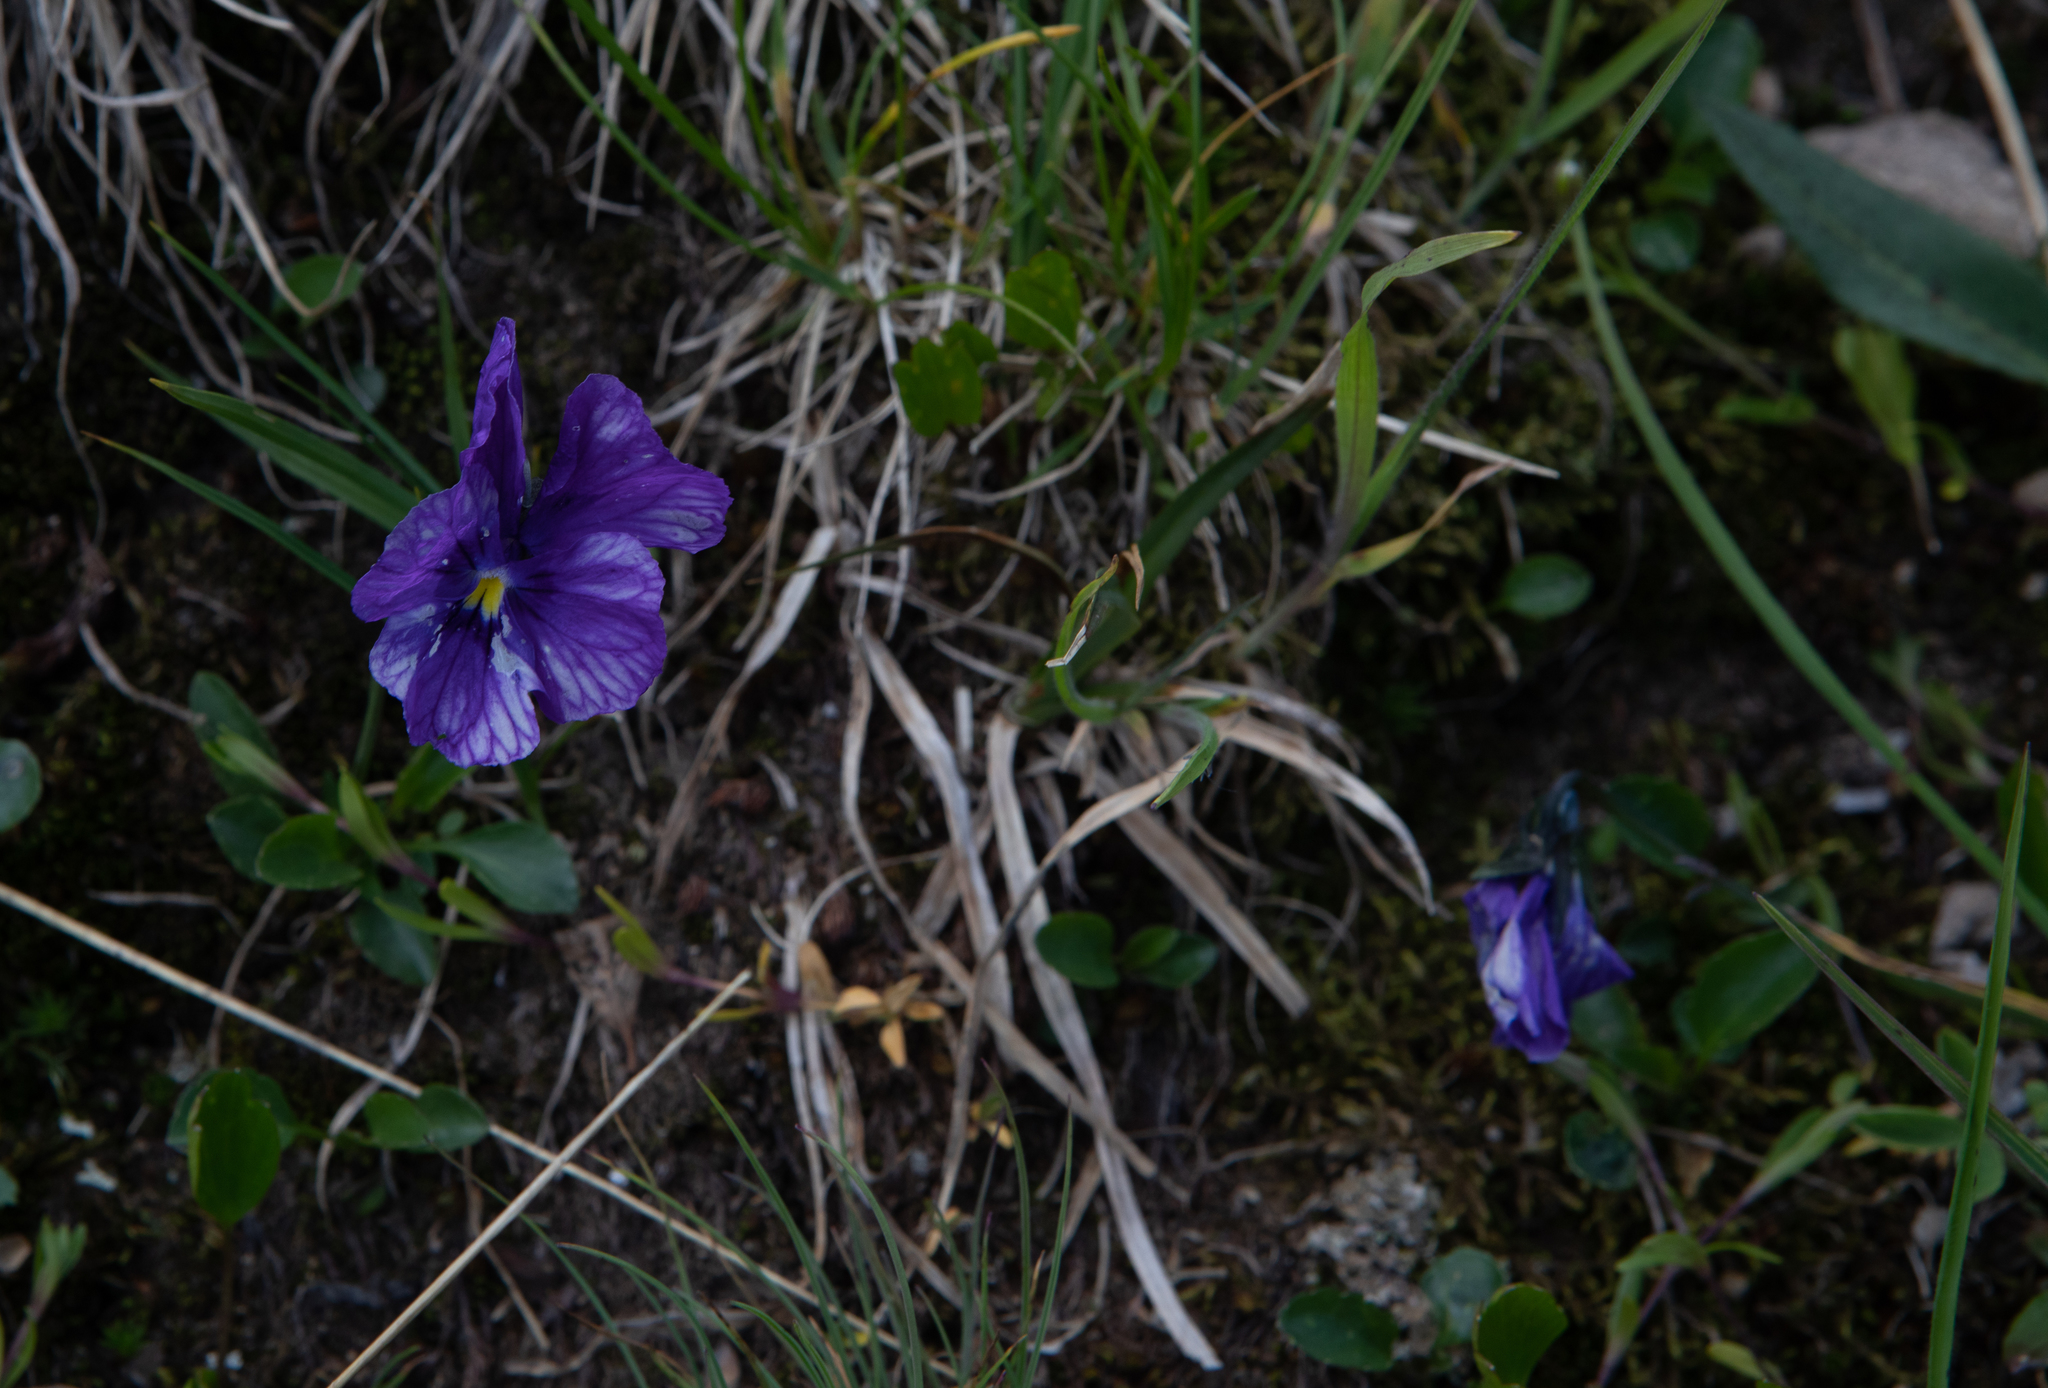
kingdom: Plantae
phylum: Tracheophyta
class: Magnoliopsida
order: Malpighiales
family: Violaceae
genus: Viola
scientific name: Viola altaica
